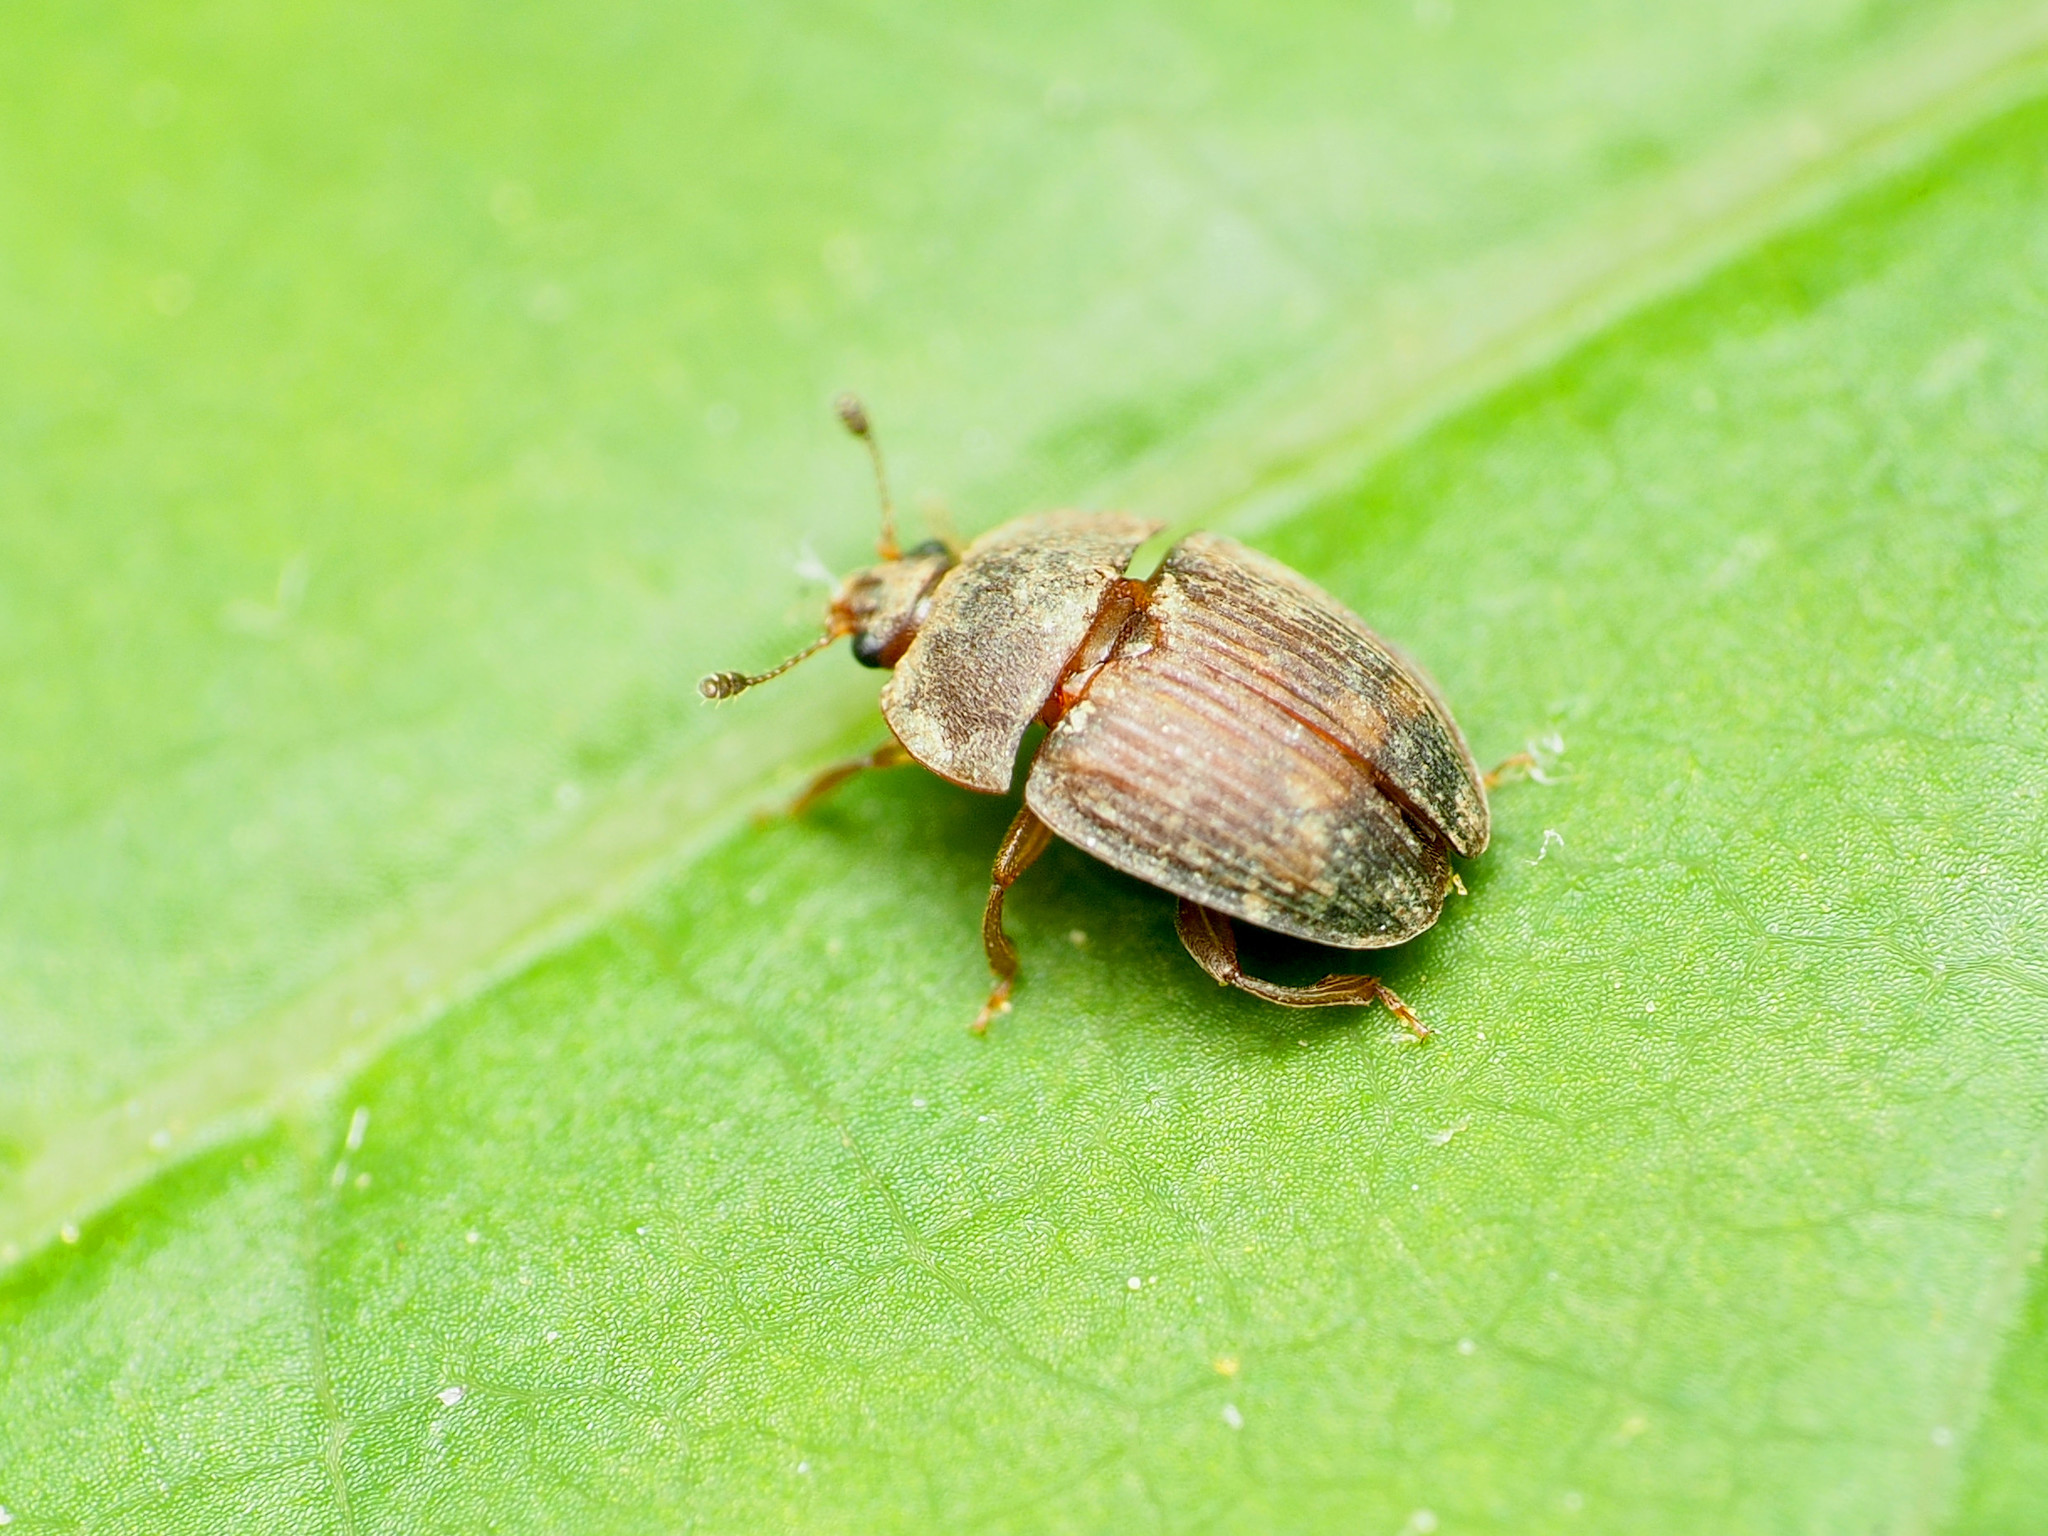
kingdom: Animalia
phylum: Arthropoda
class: Insecta
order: Coleoptera
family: Nitidulidae
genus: Stelidota
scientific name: Stelidota geminata
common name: Strawberry sap beetle
